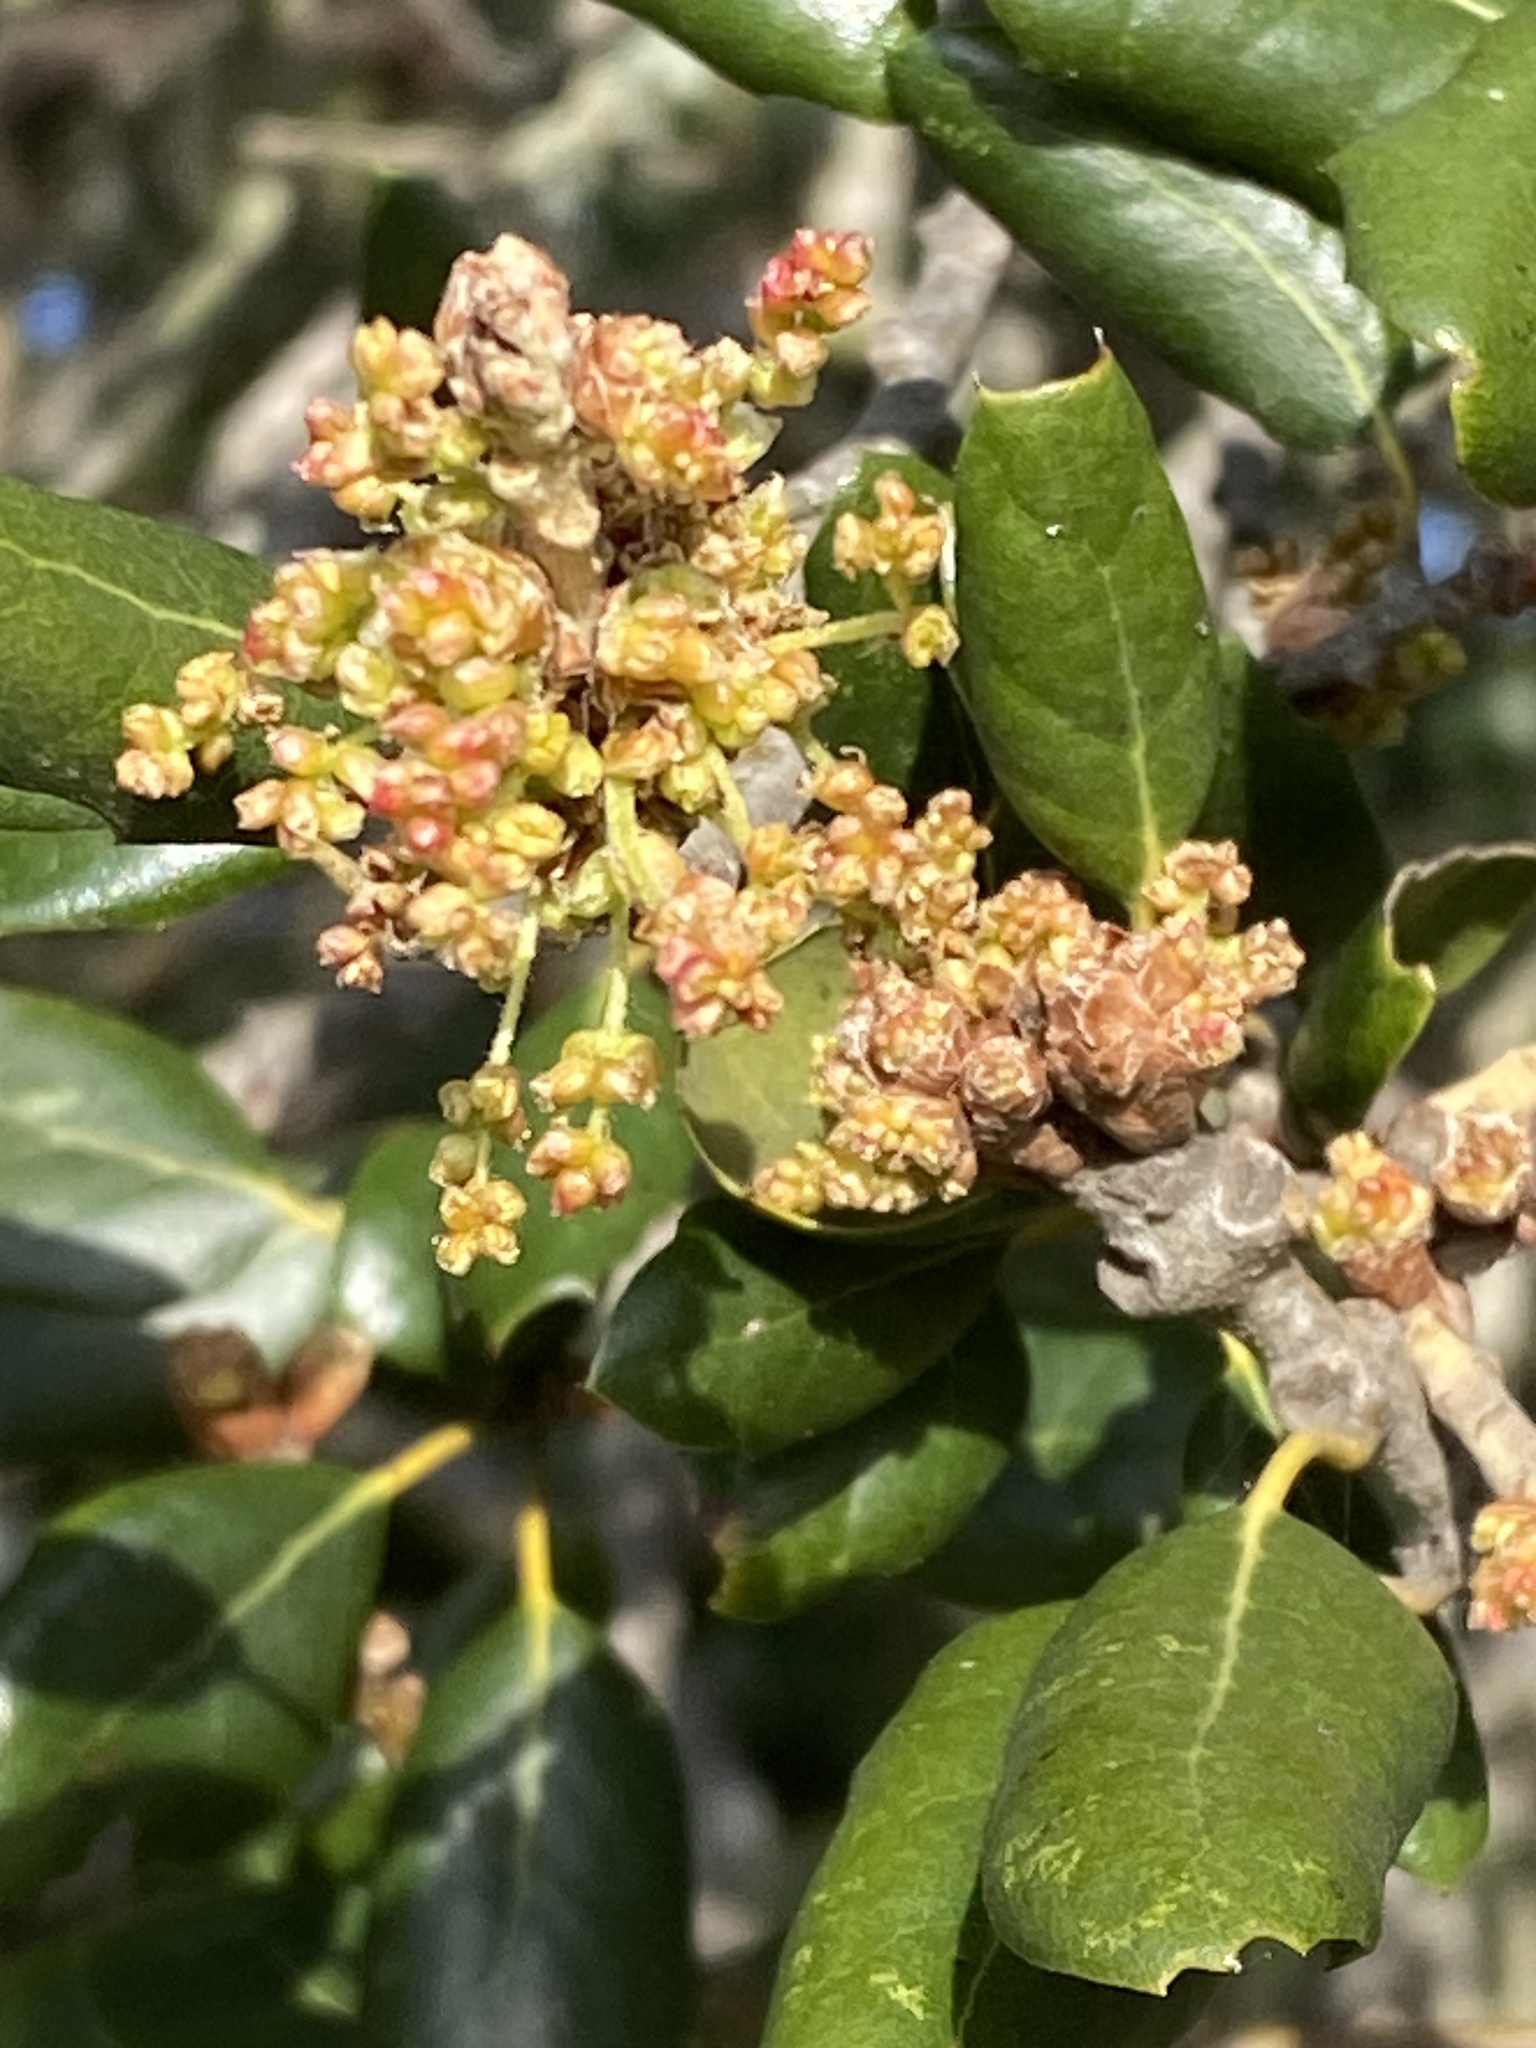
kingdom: Plantae
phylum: Tracheophyta
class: Magnoliopsida
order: Fagales
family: Fagaceae
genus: Quercus
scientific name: Quercus agrifolia
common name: California live oak
